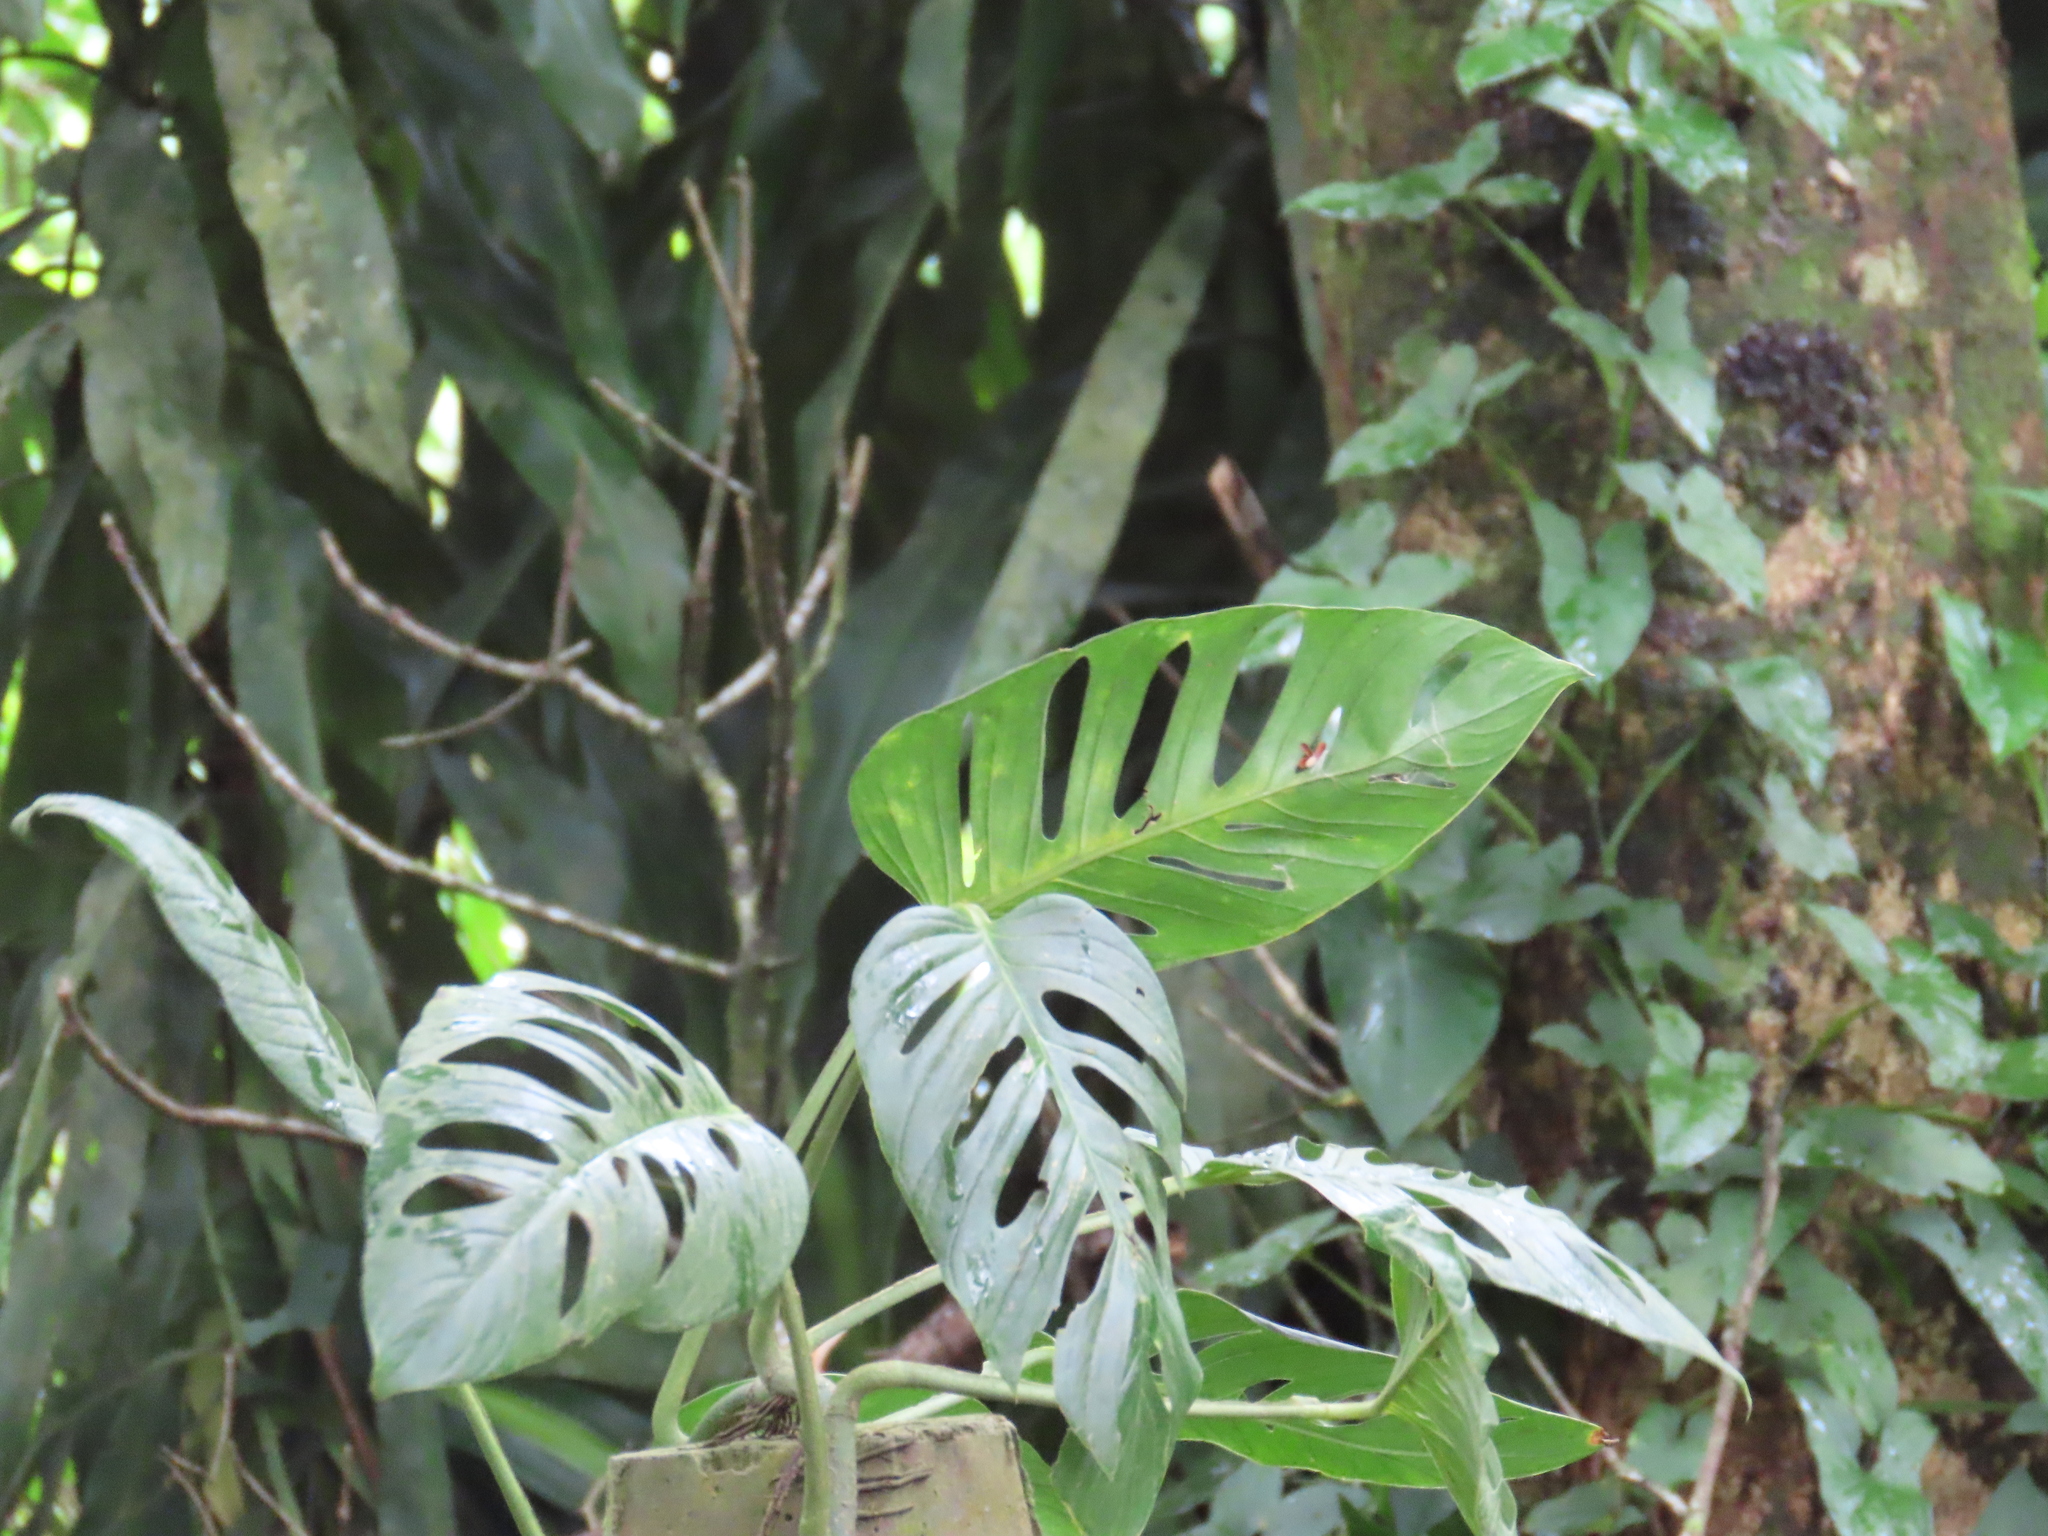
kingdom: Plantae
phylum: Tracheophyta
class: Liliopsida
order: Alismatales
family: Araceae
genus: Monstera
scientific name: Monstera adansonii
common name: Tarovine
